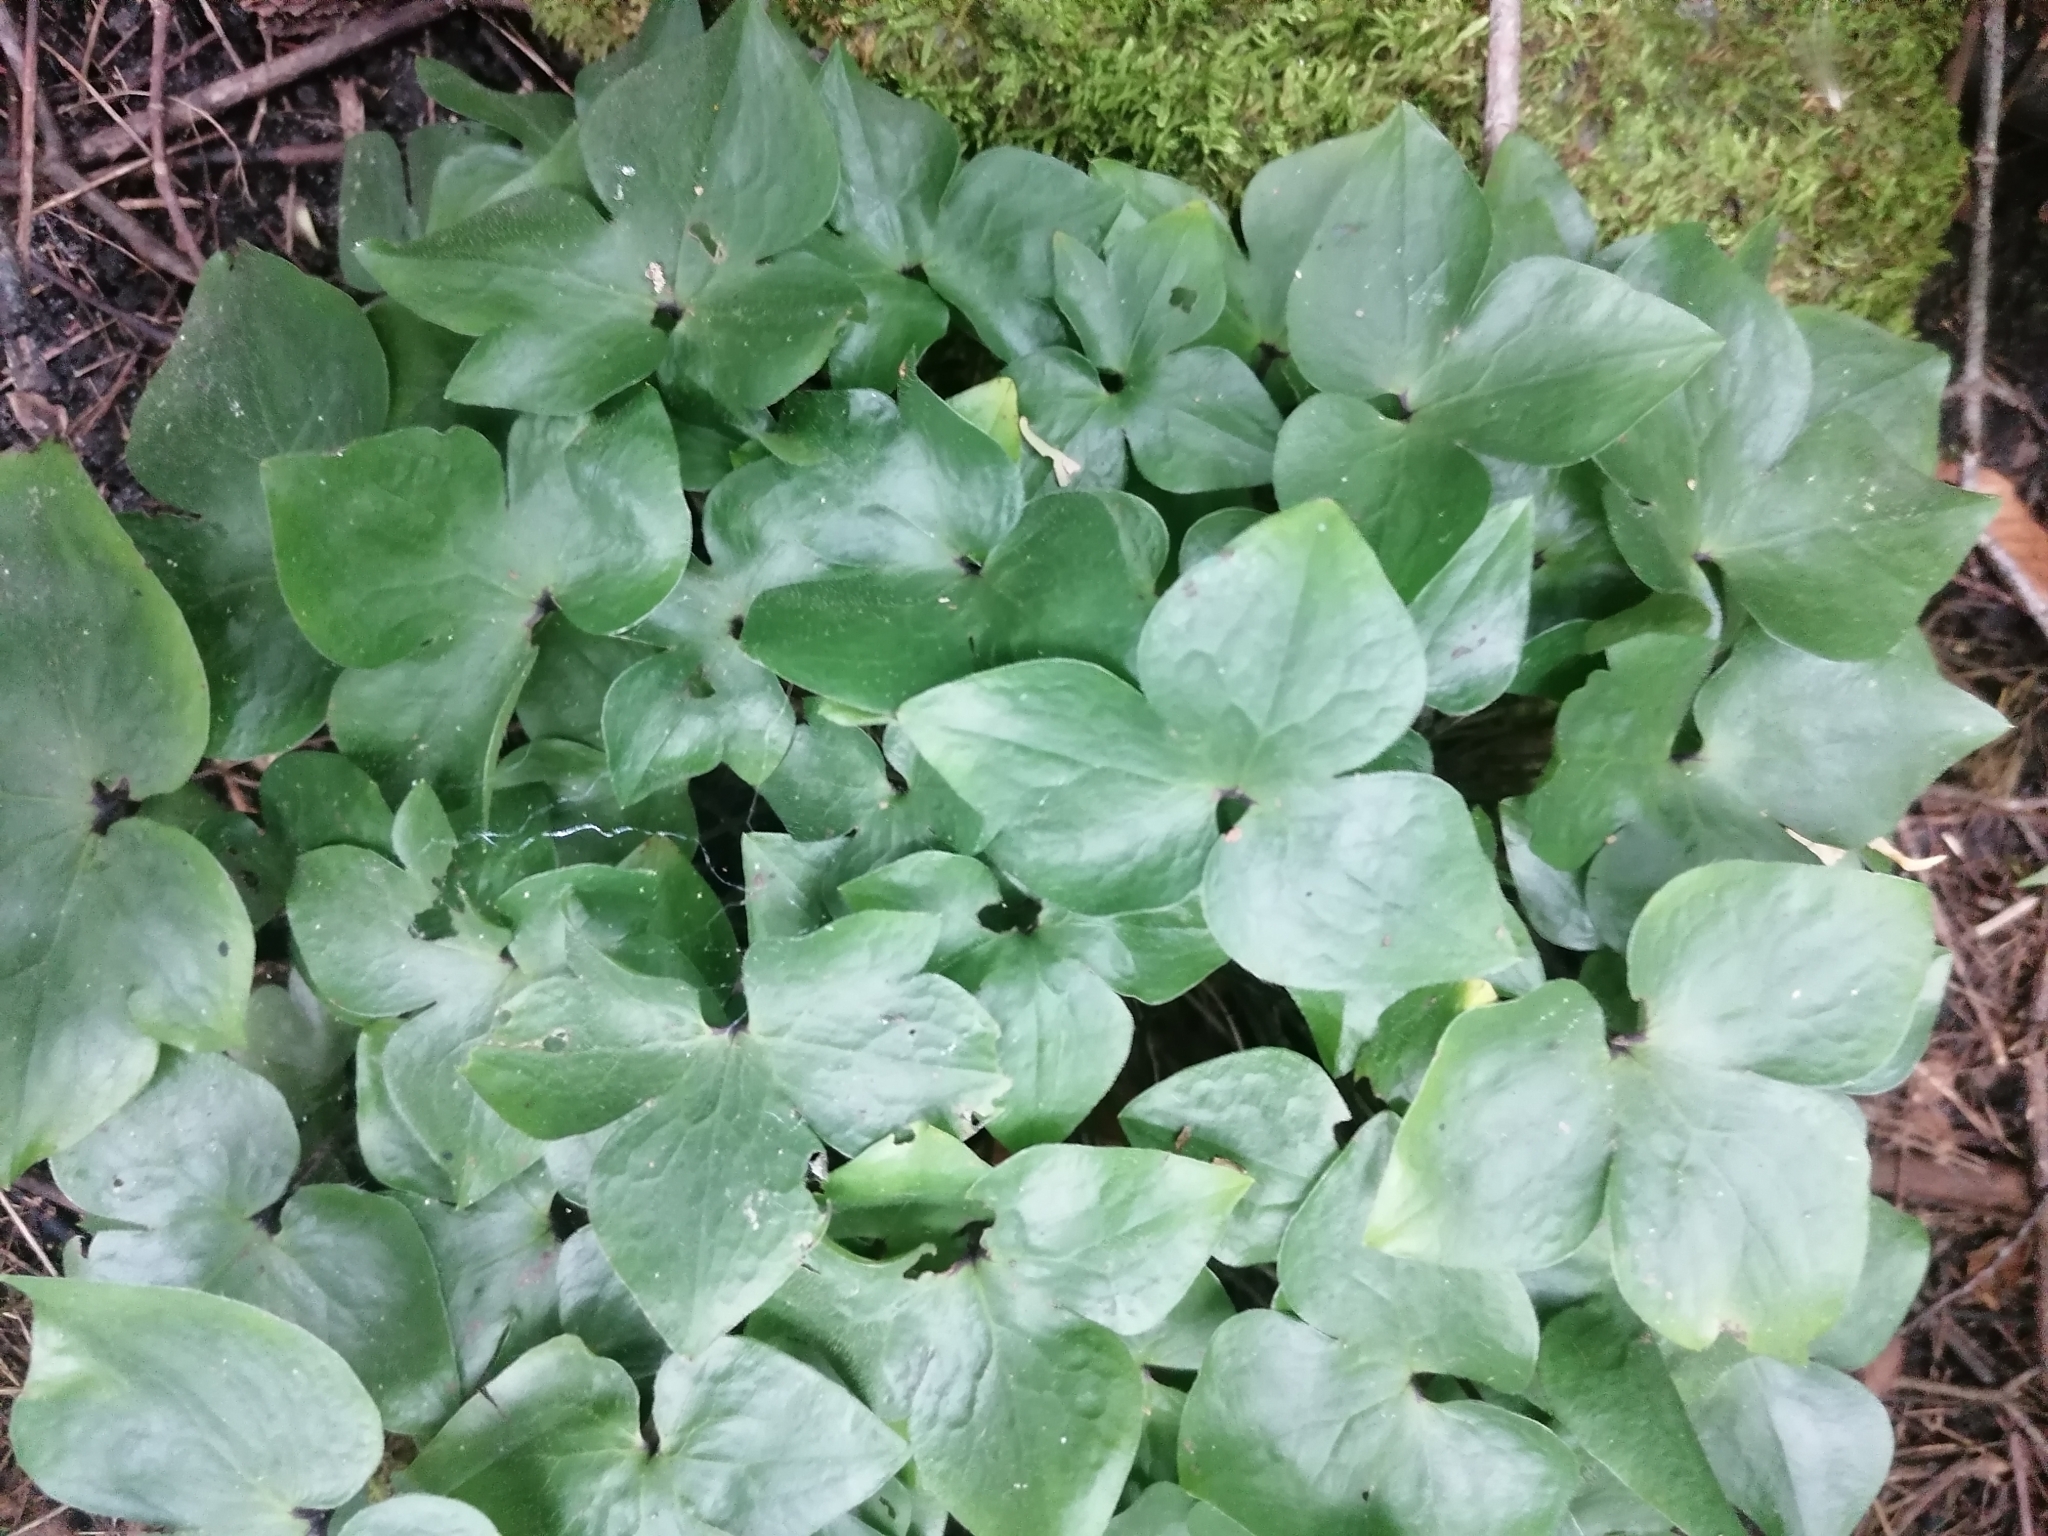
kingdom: Plantae
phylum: Tracheophyta
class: Magnoliopsida
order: Ranunculales
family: Ranunculaceae
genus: Hepatica
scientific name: Hepatica acutiloba
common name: Sharp-lobed hepatica
